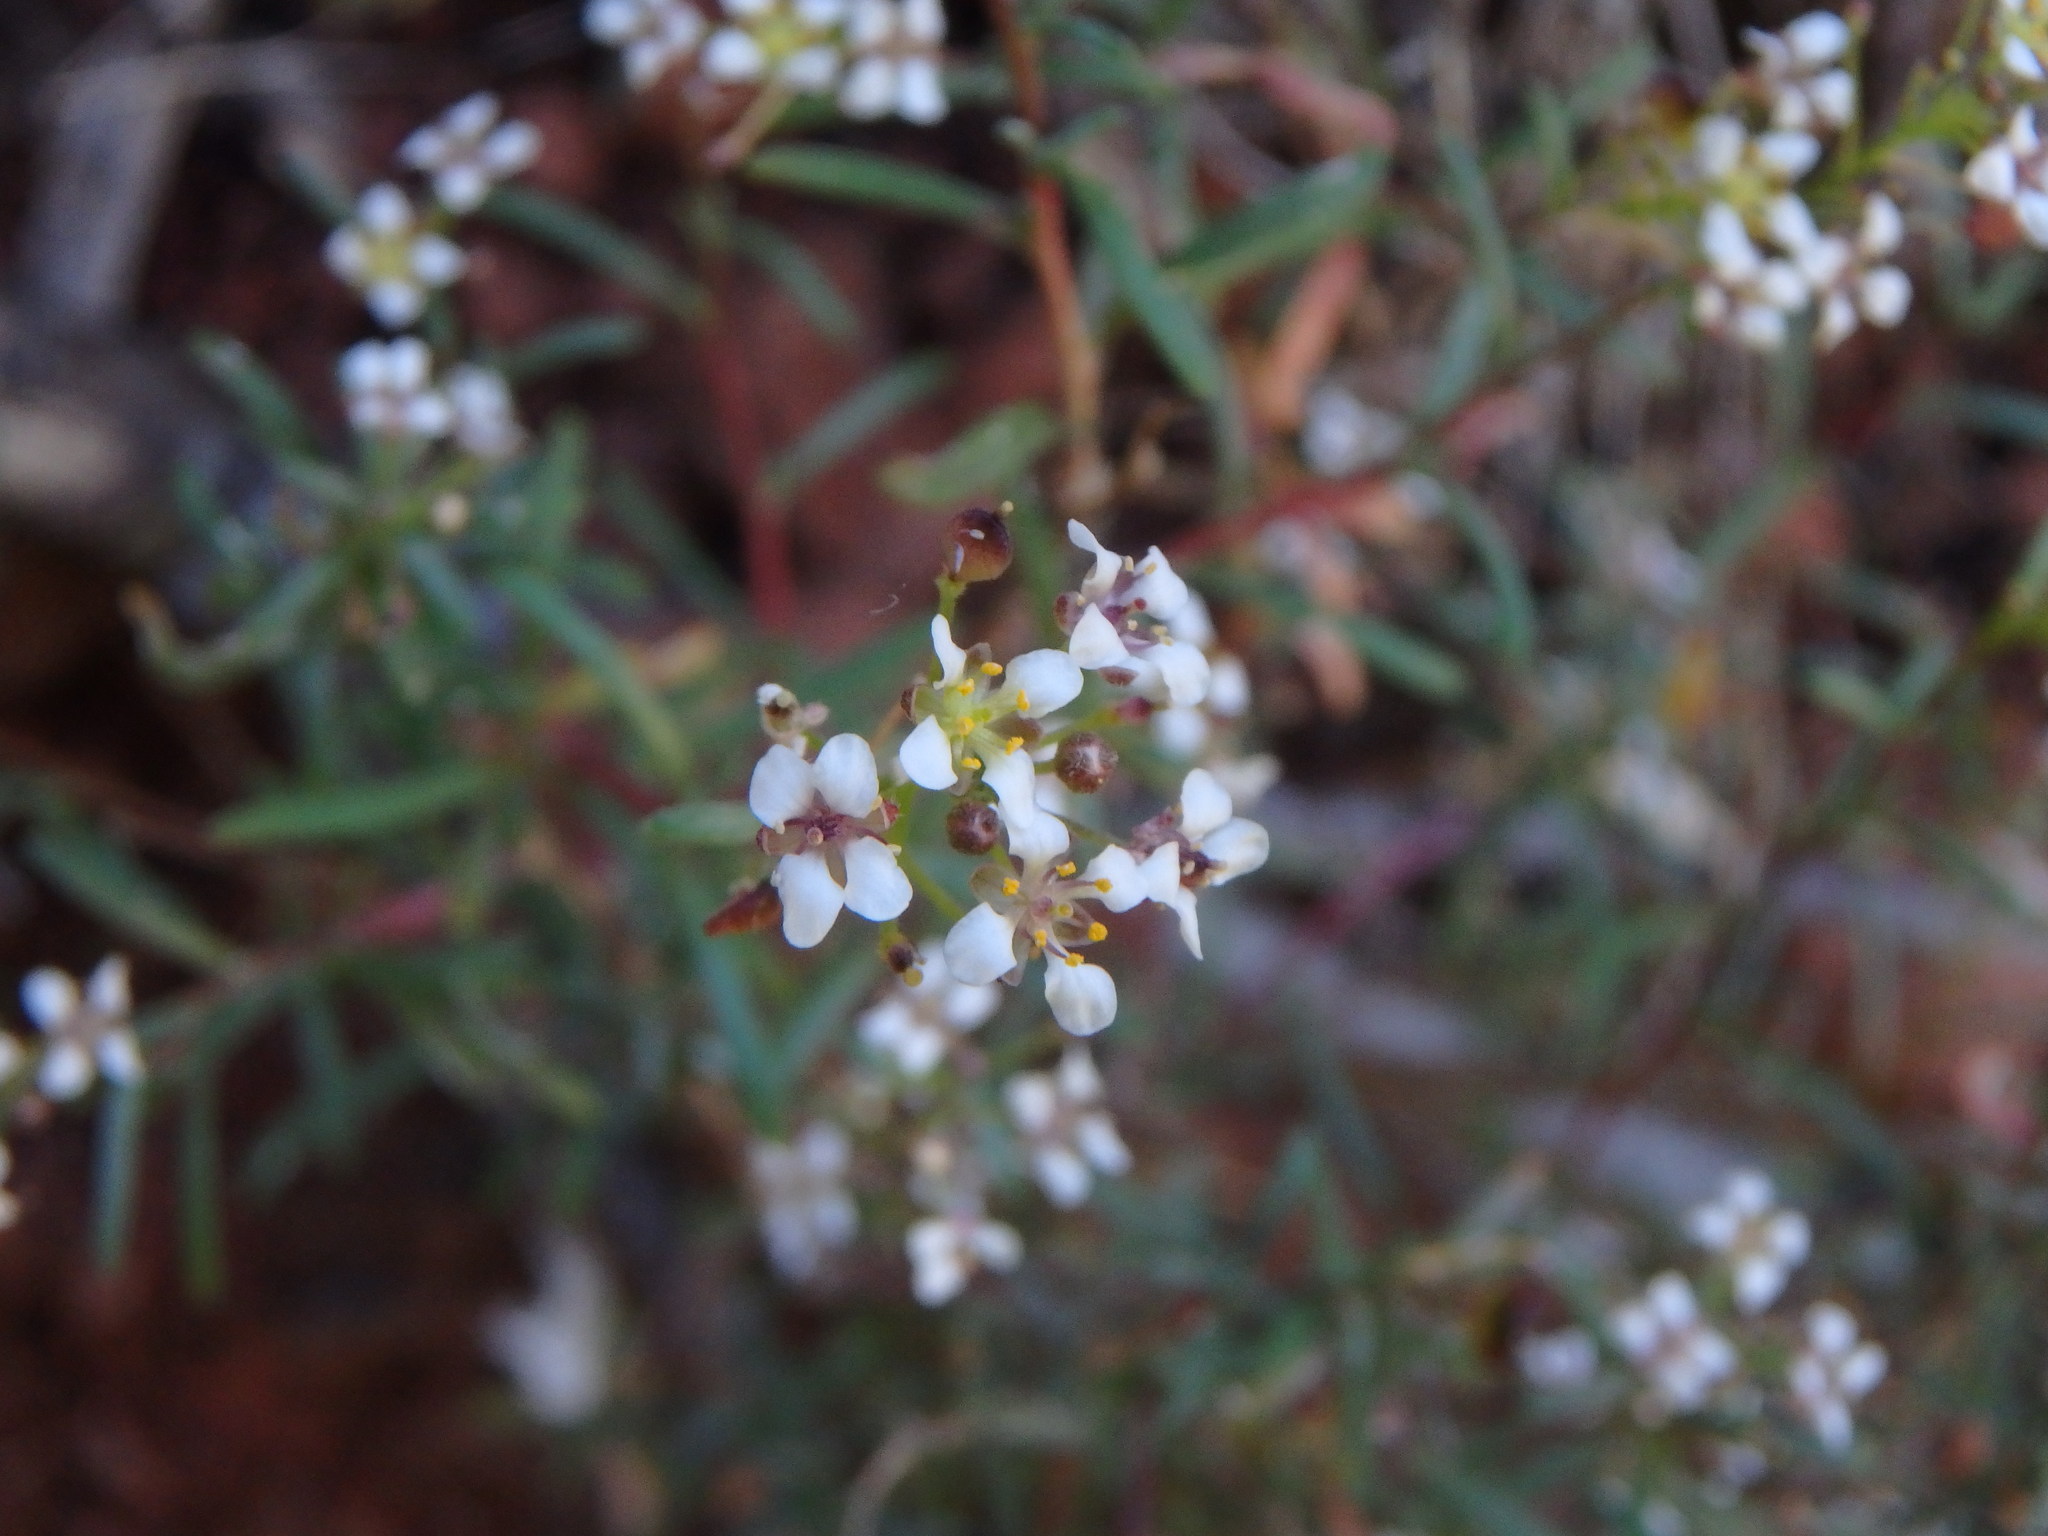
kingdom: Plantae
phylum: Tracheophyta
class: Magnoliopsida
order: Brassicales
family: Brassicaceae
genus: Lobularia
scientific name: Lobularia canariensis
